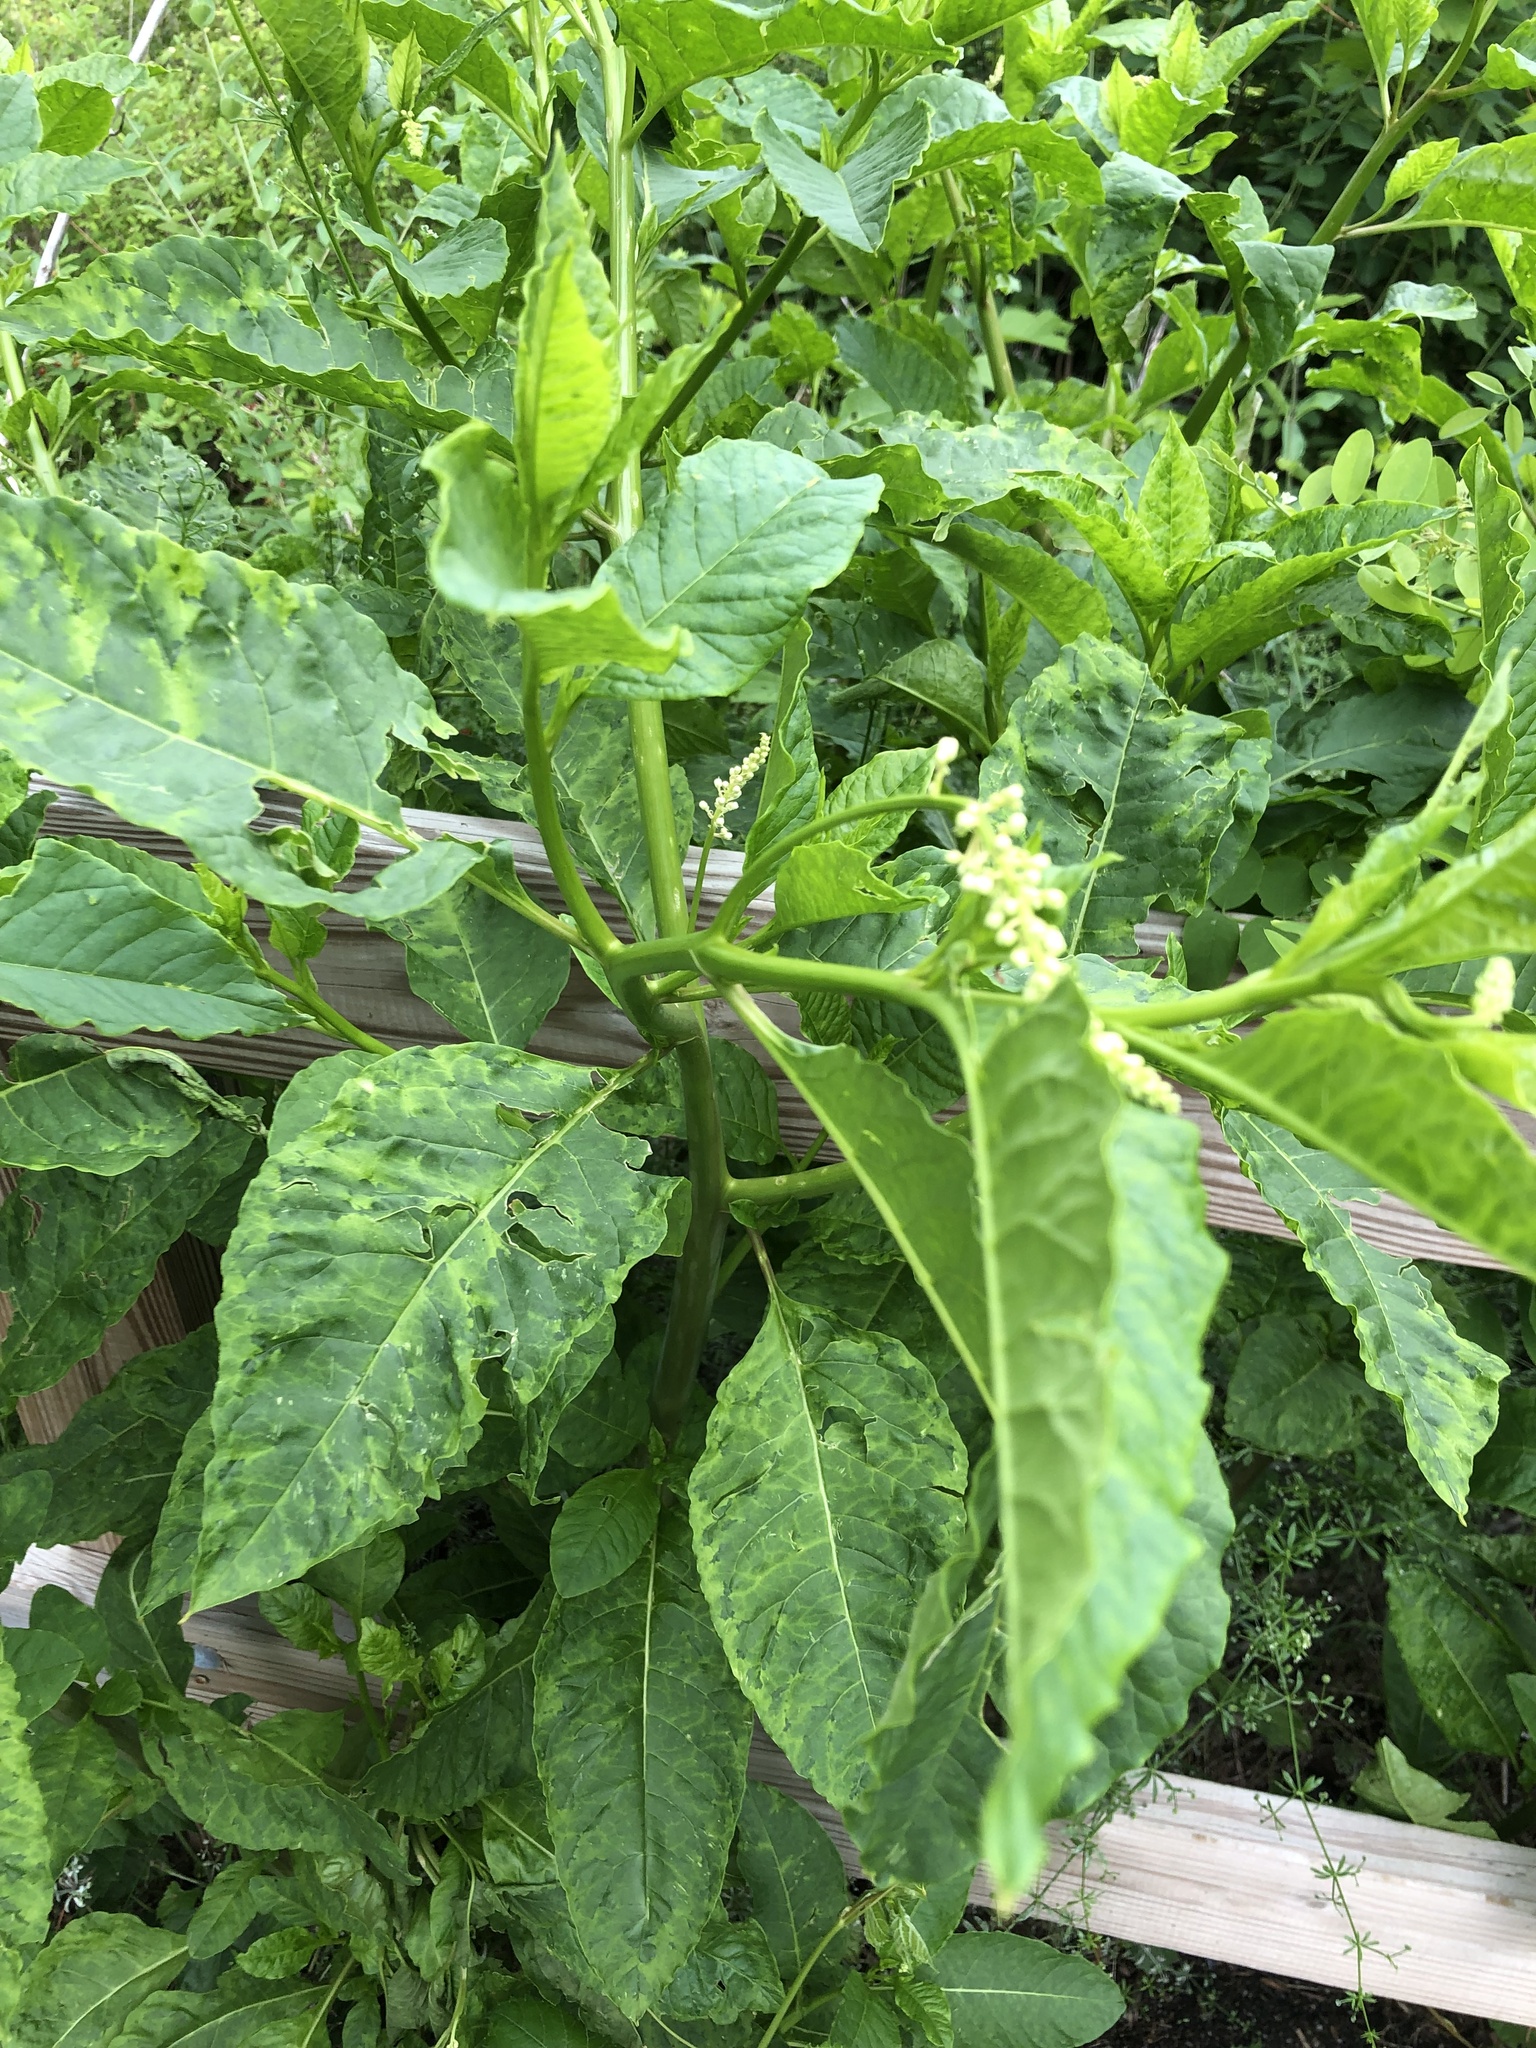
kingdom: Viruses
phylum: Pisuviricota
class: Stelpaviricetes
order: Patatavirales
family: Potyviridae
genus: Potyvirus
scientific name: Potyvirus Pokeweed mosaic virus
